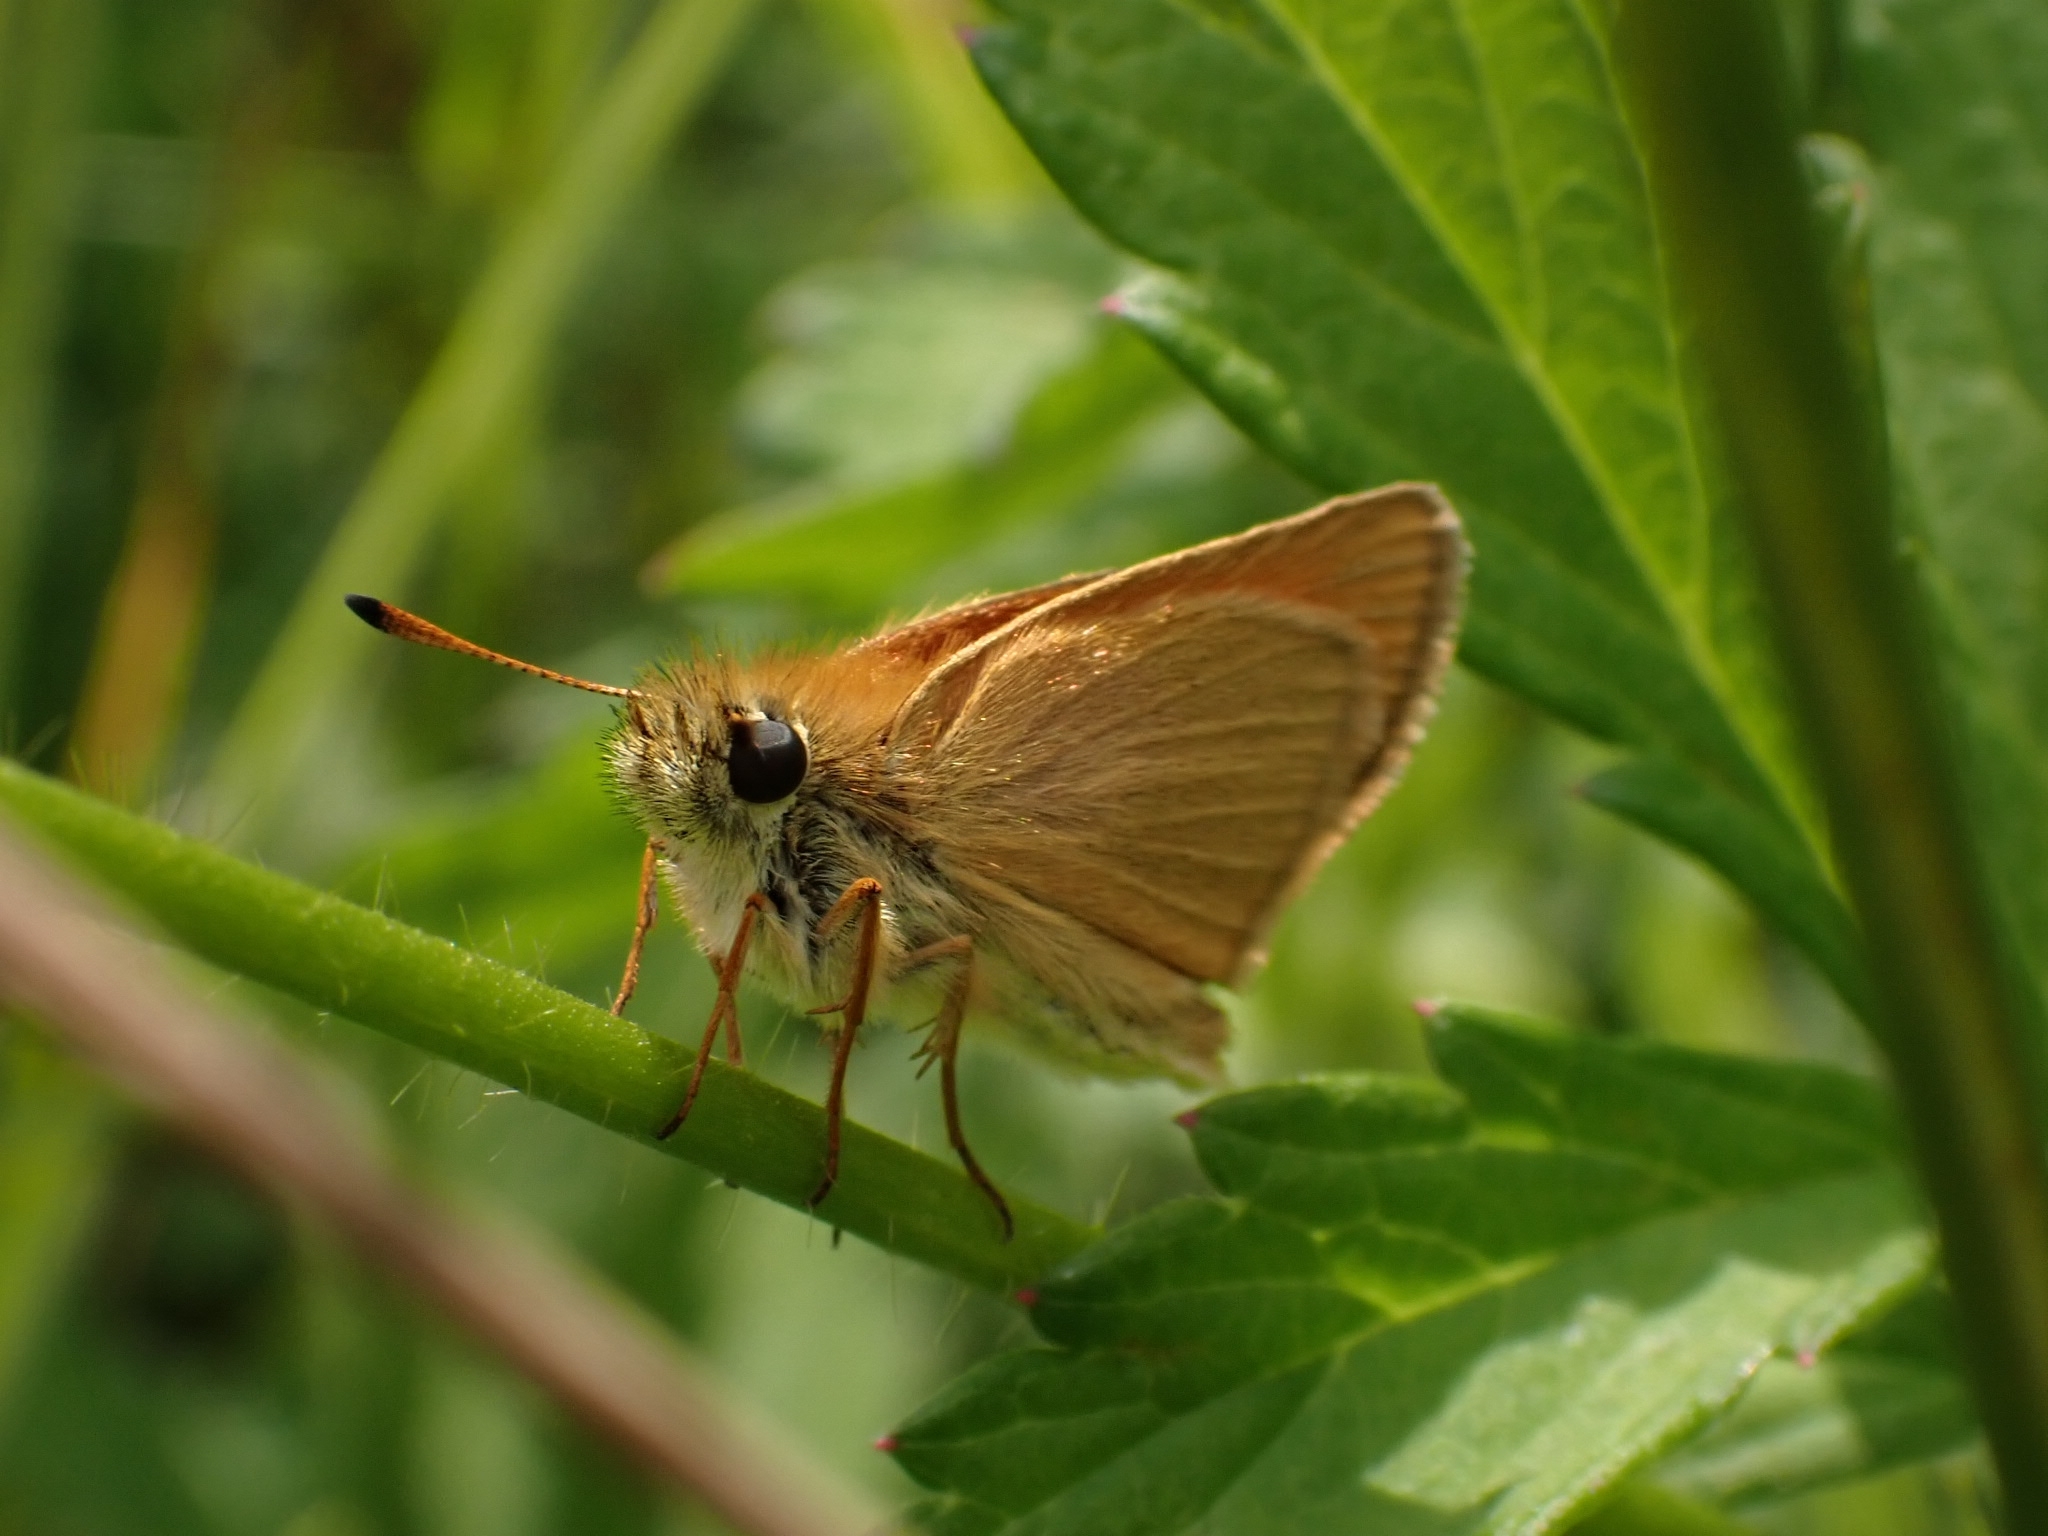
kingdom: Animalia
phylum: Arthropoda
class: Insecta
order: Lepidoptera
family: Hesperiidae
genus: Thymelicus
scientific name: Thymelicus lineola
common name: Essex skipper
